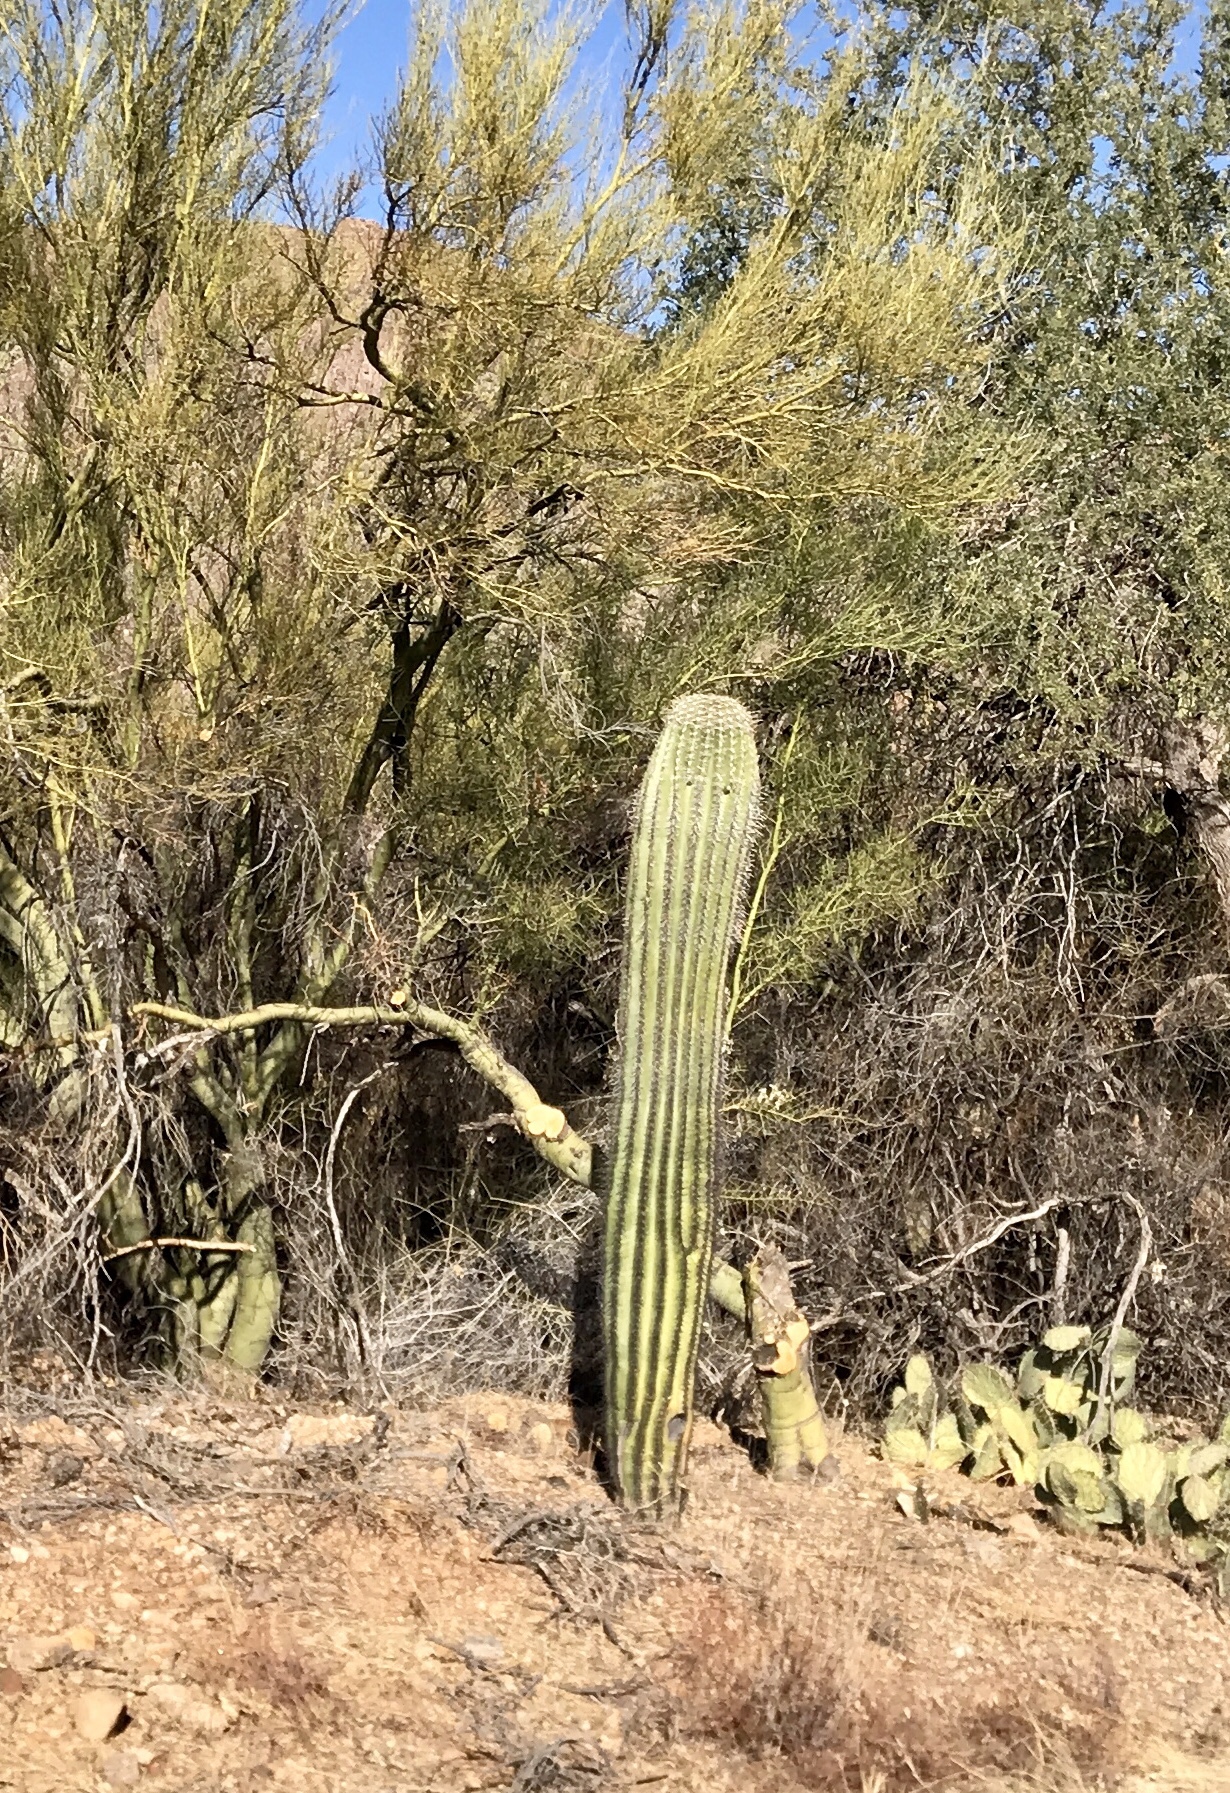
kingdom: Plantae
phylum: Tracheophyta
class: Magnoliopsida
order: Caryophyllales
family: Cactaceae
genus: Carnegiea
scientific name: Carnegiea gigantea
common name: Saguaro
